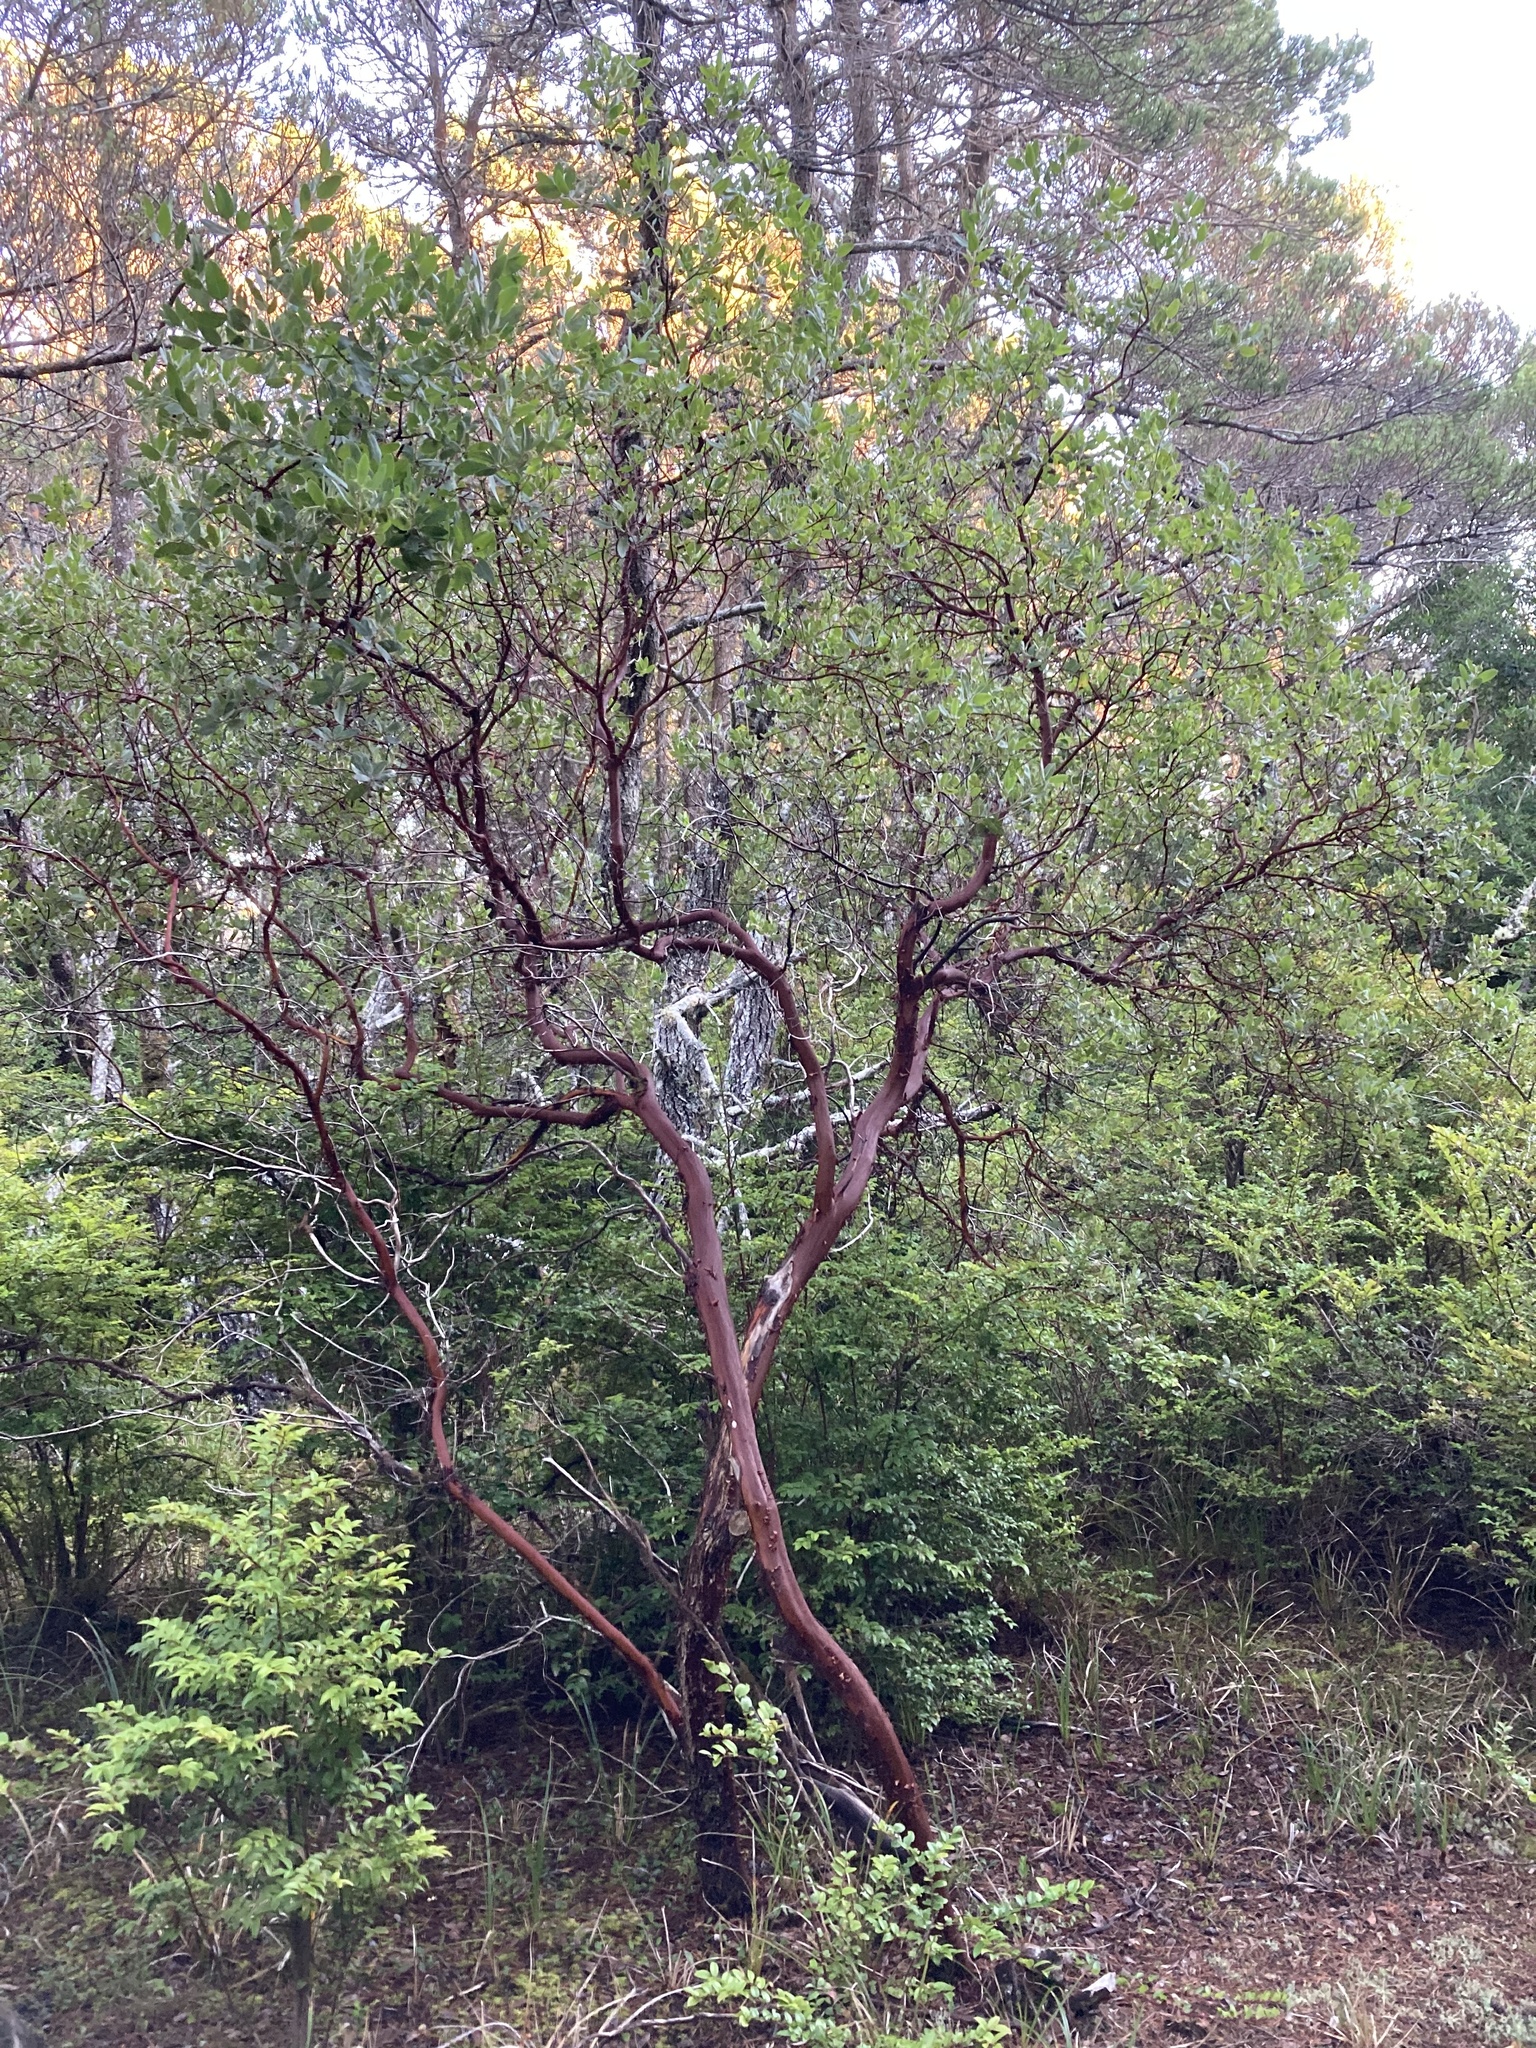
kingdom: Plantae
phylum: Tracheophyta
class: Magnoliopsida
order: Ericales
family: Ericaceae
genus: Arctostaphylos
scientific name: Arctostaphylos columbiana
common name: Bristly bearberry
